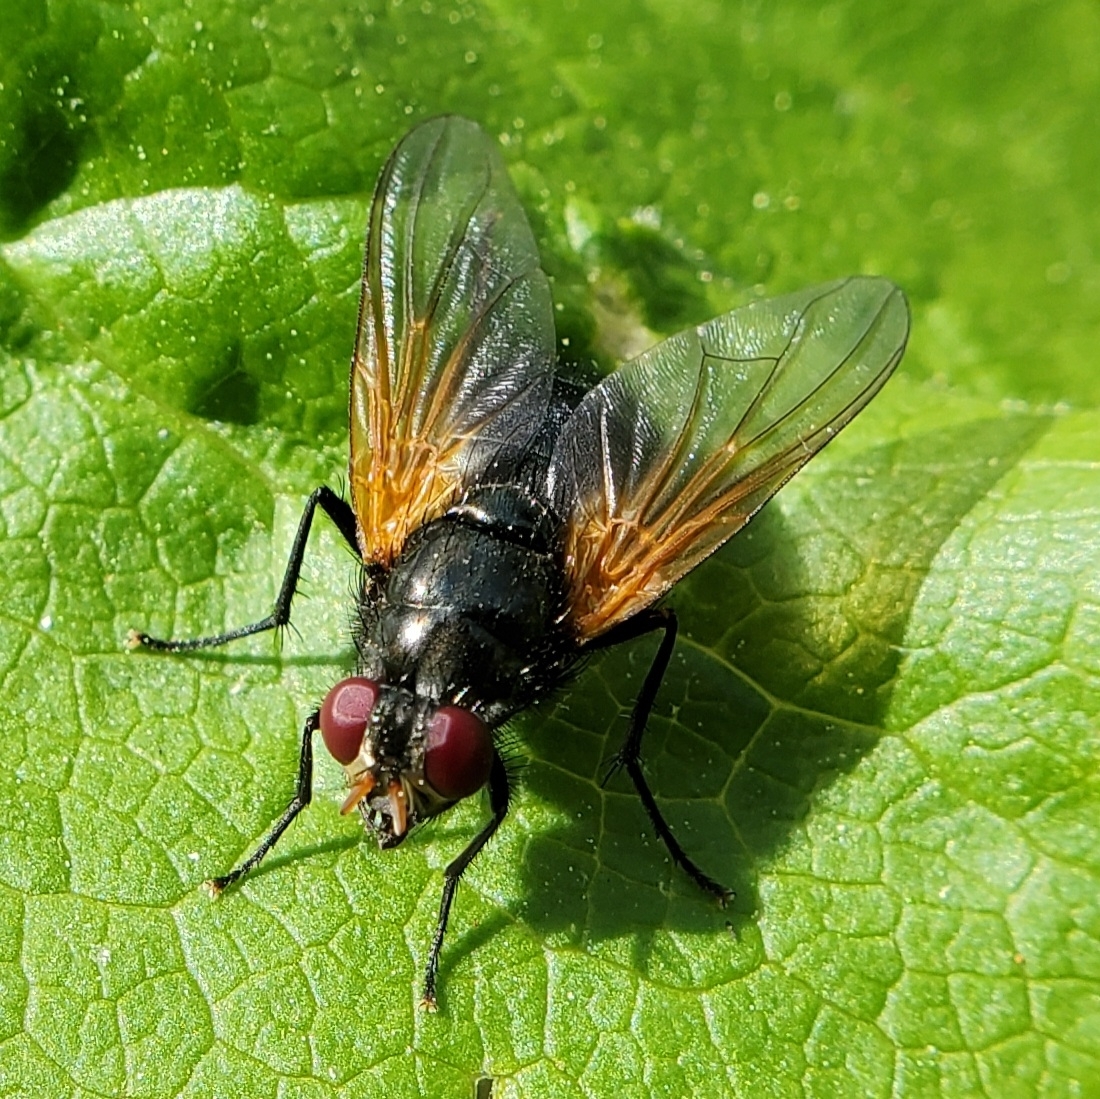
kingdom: Animalia
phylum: Arthropoda
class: Insecta
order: Diptera
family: Muscidae
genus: Mesembrina
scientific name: Mesembrina latreillii
